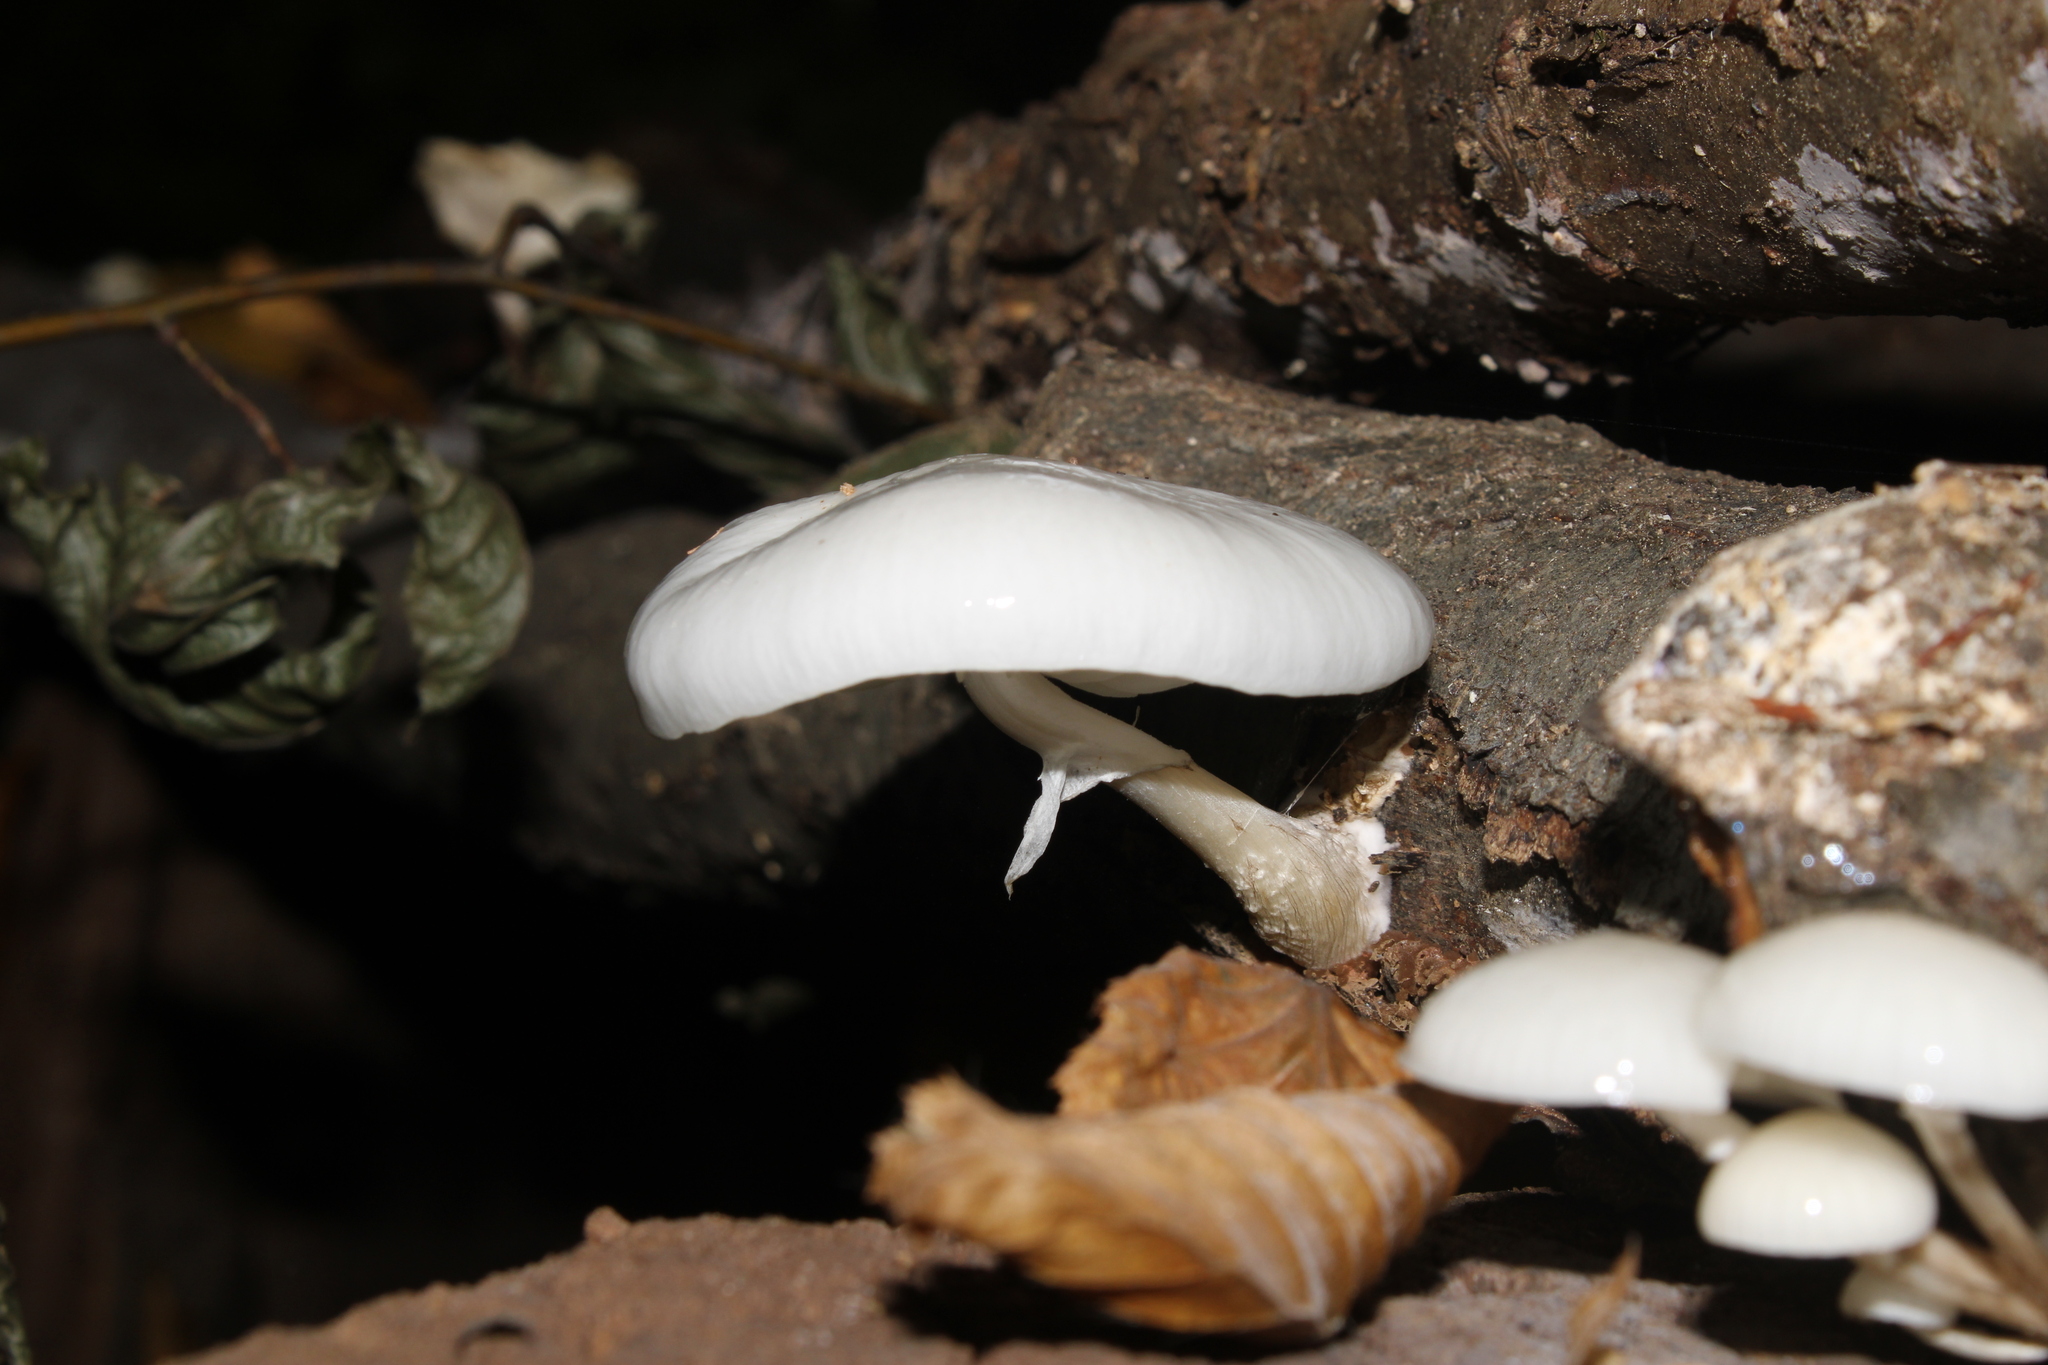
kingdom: Fungi
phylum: Basidiomycota
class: Agaricomycetes
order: Agaricales
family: Physalacriaceae
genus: Mucidula
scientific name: Mucidula mucida
